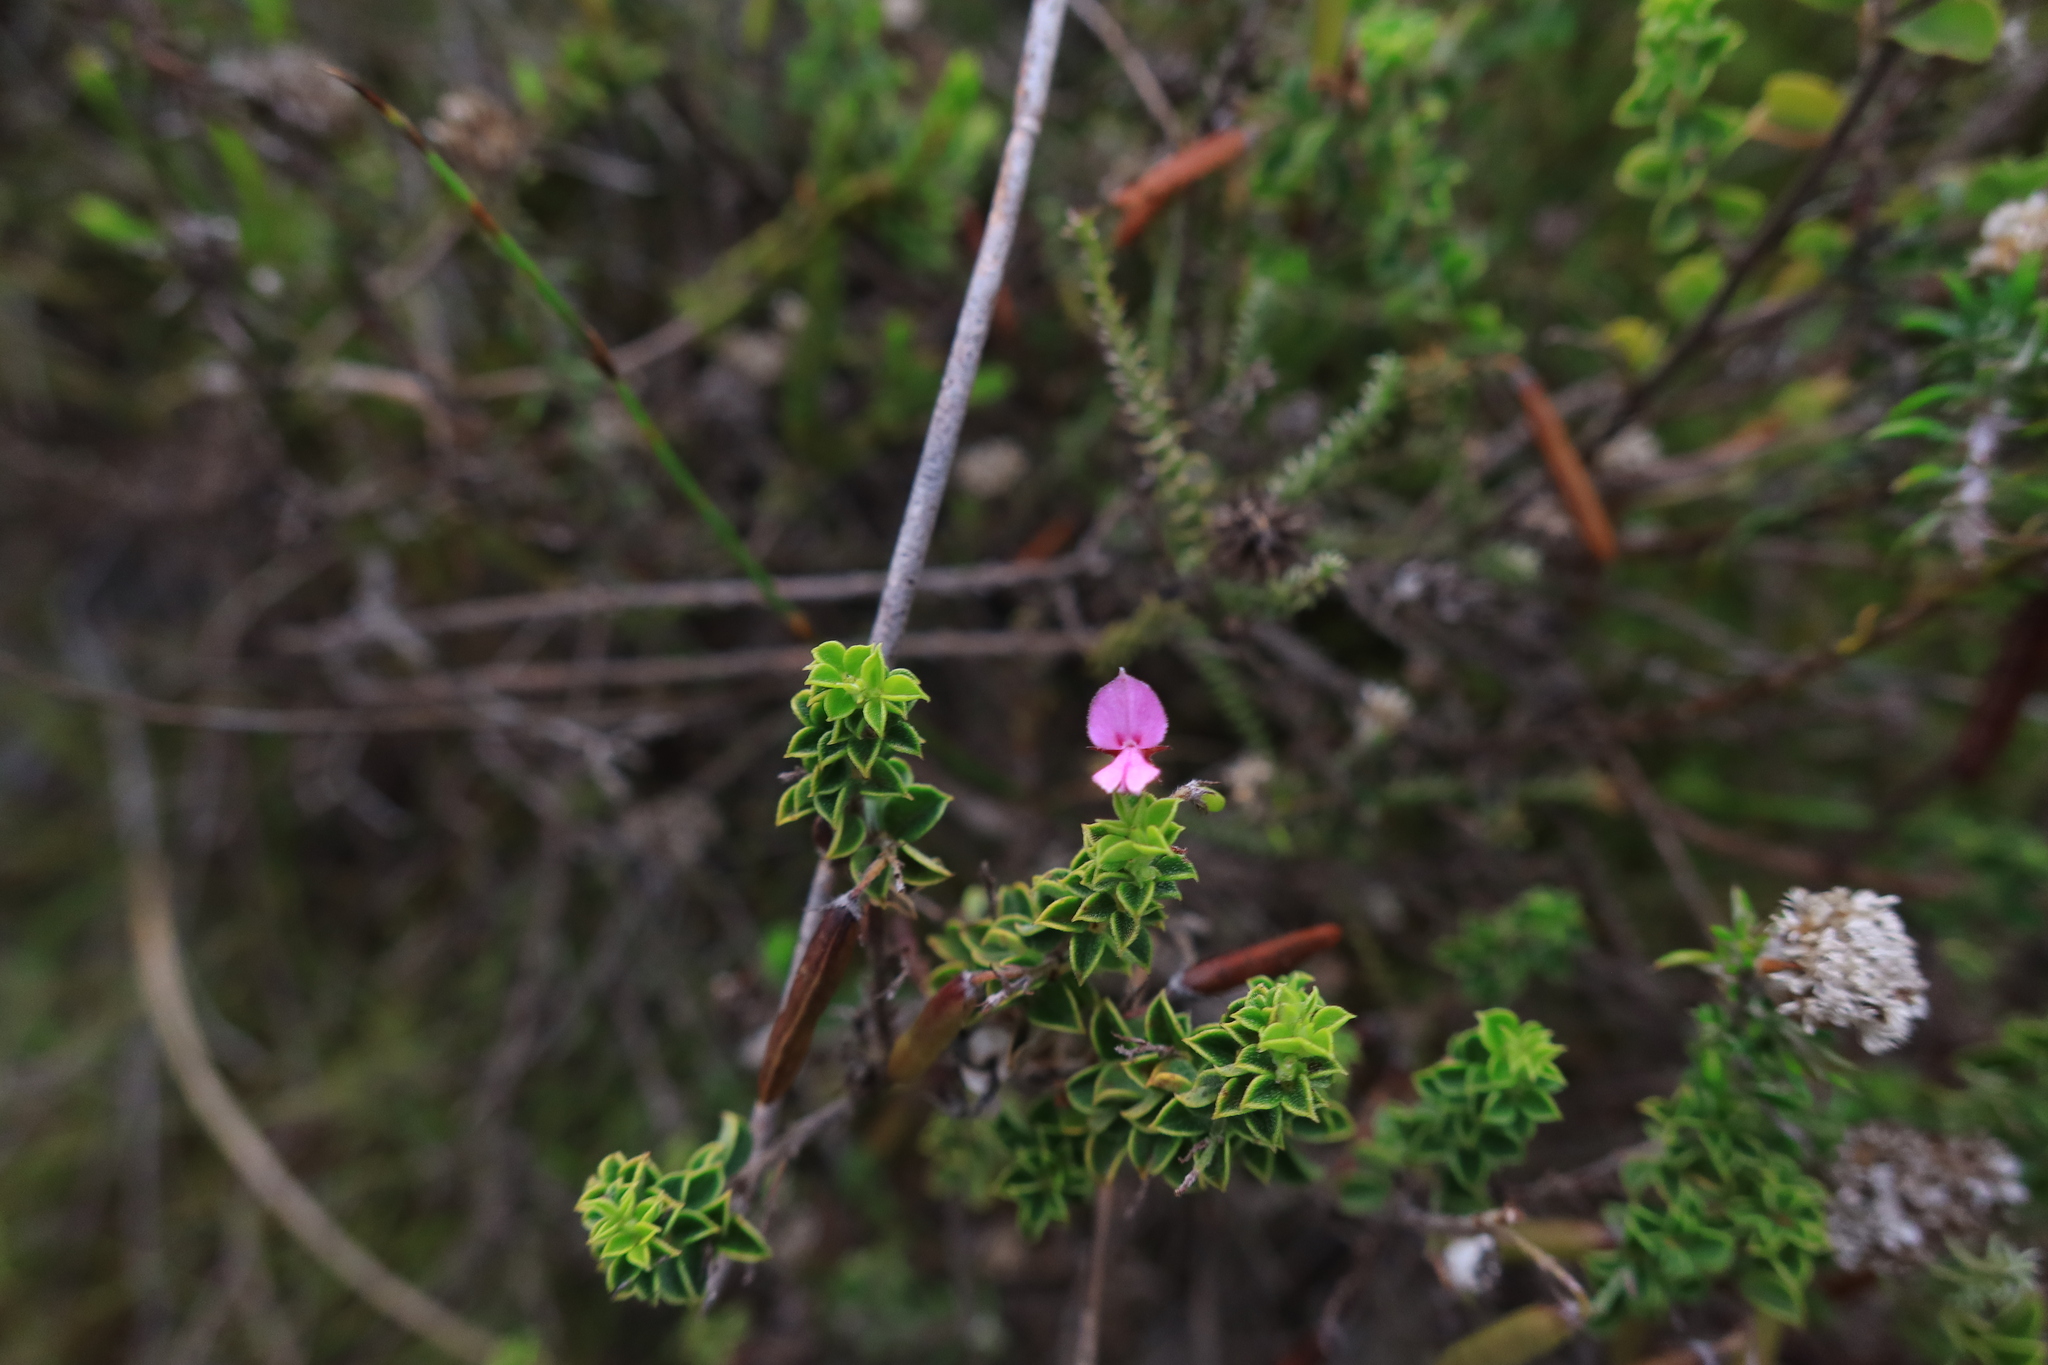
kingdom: Plantae
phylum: Tracheophyta
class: Magnoliopsida
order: Fabales
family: Fabaceae
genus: Indigofera
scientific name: Indigofera candolleana
